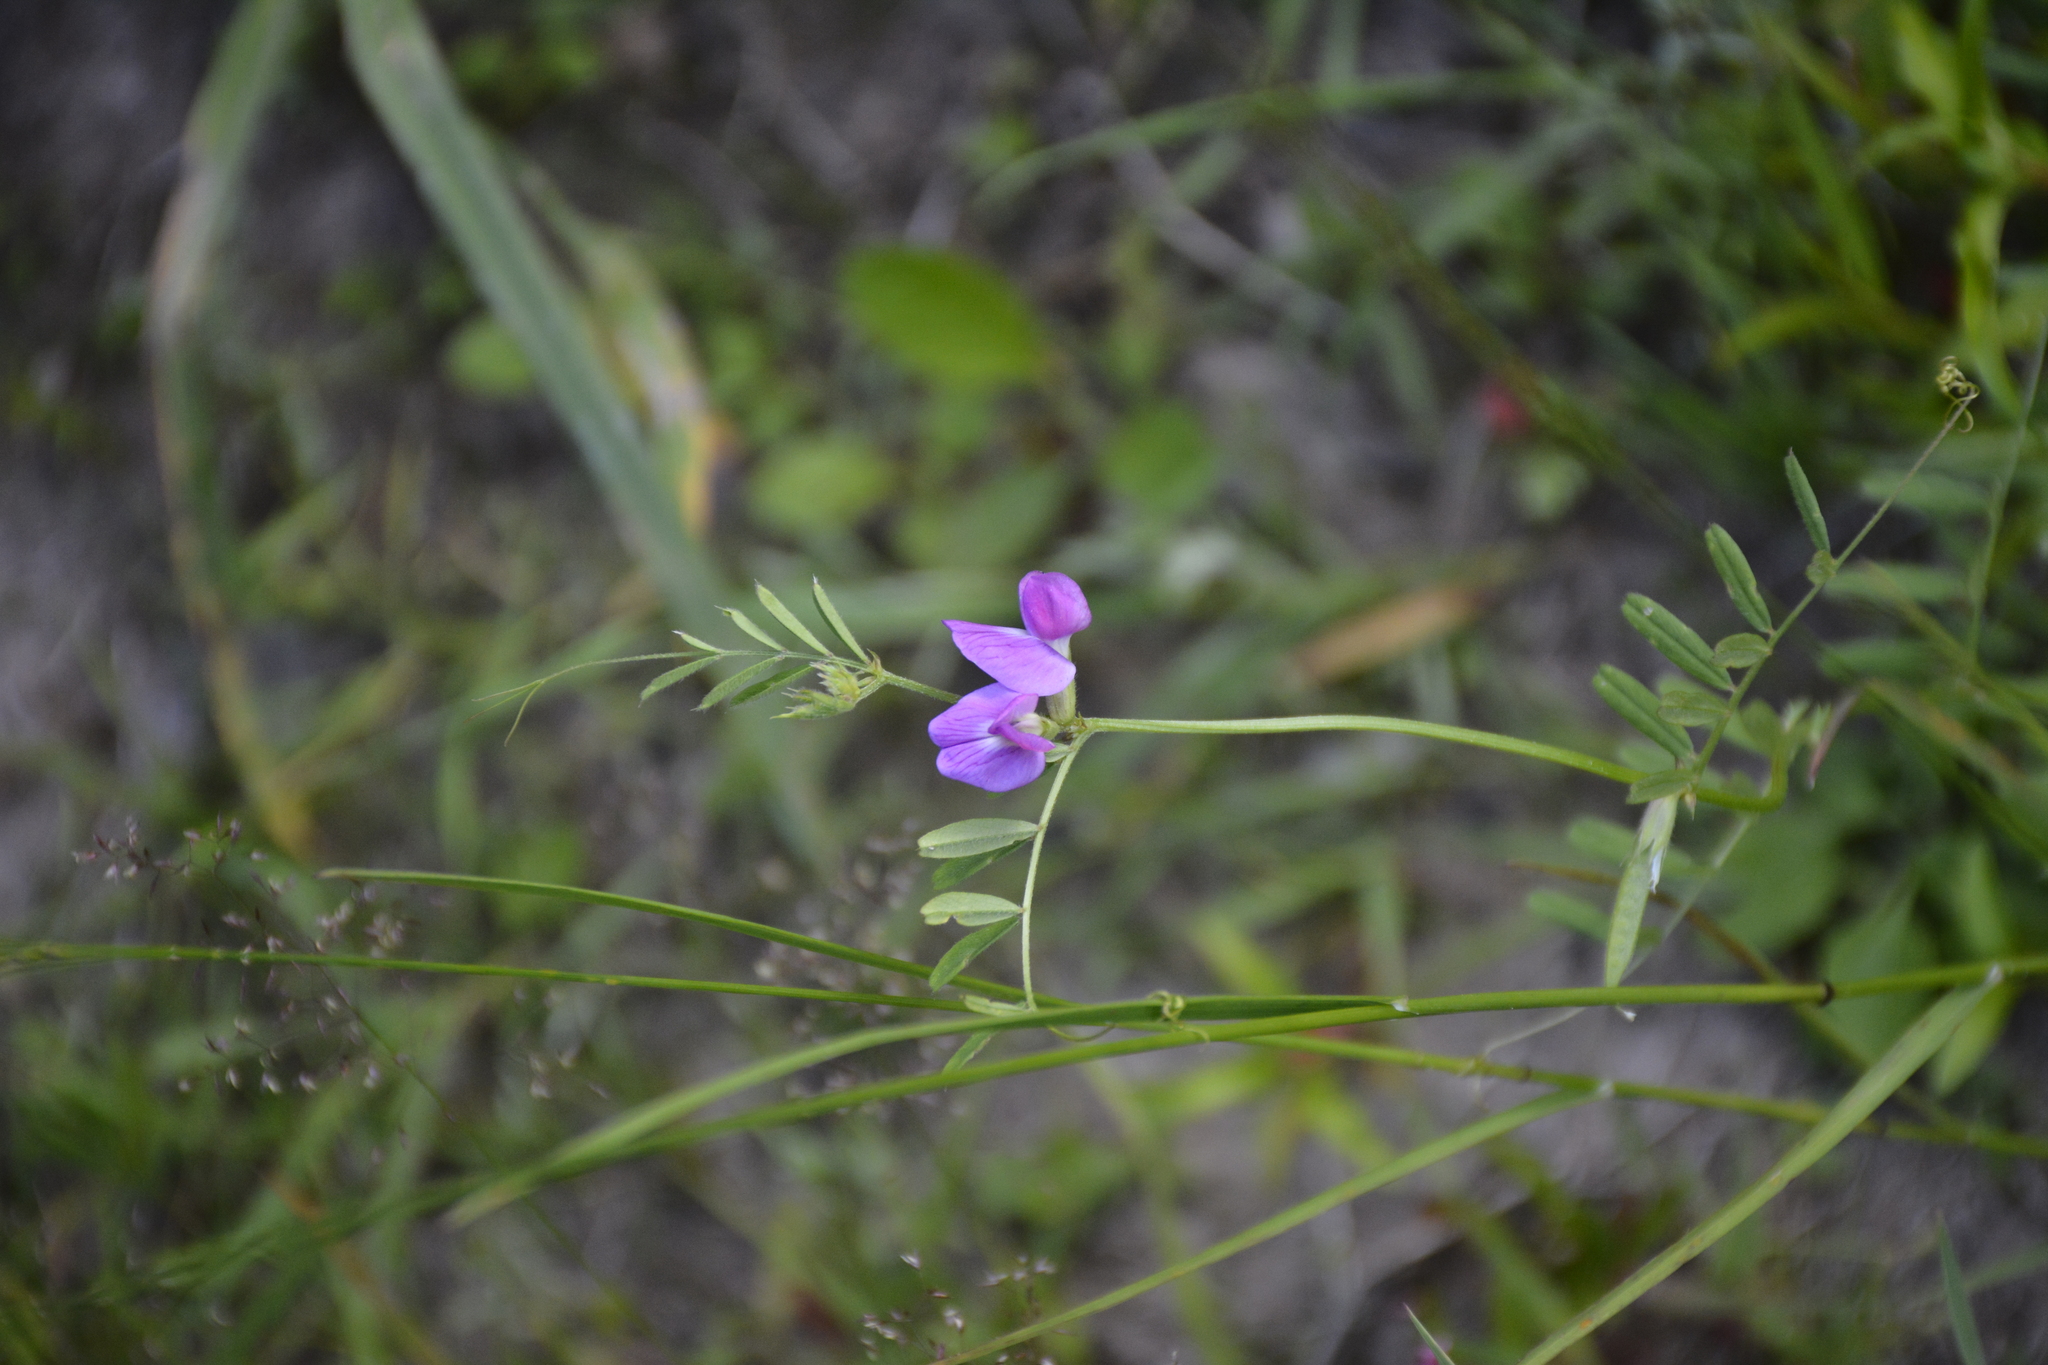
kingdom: Plantae
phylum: Tracheophyta
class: Magnoliopsida
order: Fabales
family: Fabaceae
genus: Vicia
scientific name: Vicia sativa
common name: Garden vetch
